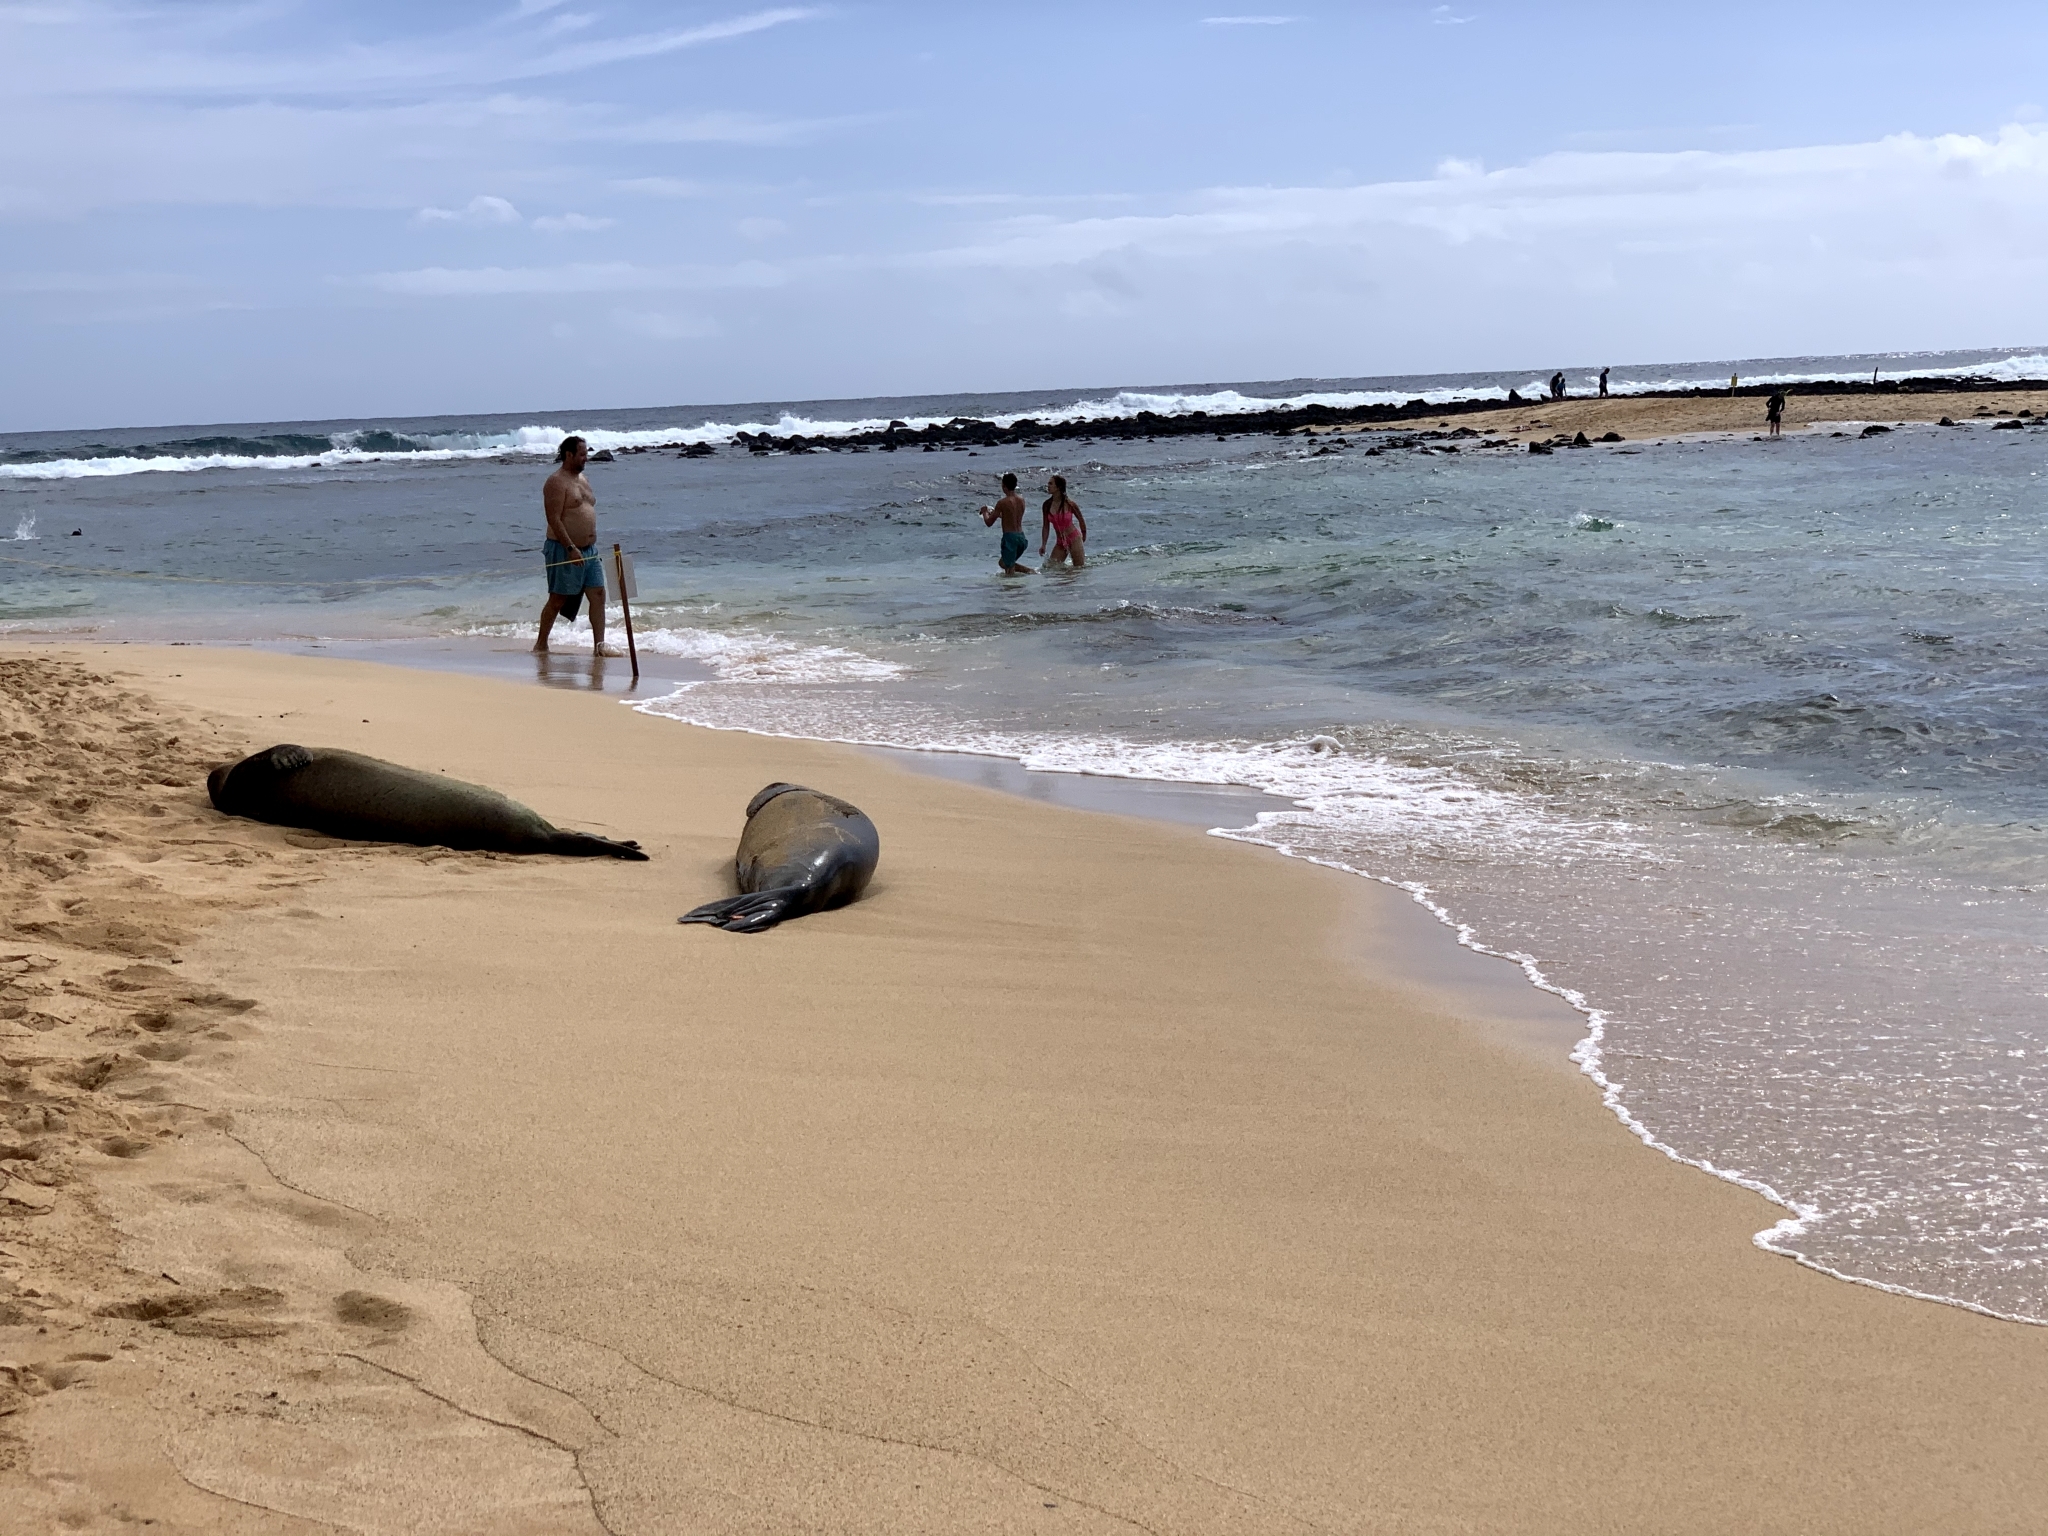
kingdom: Animalia
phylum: Chordata
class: Mammalia
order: Carnivora
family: Phocidae
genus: Neomonachus
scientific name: Neomonachus schauinslandi
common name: Hawaiian monk seal
